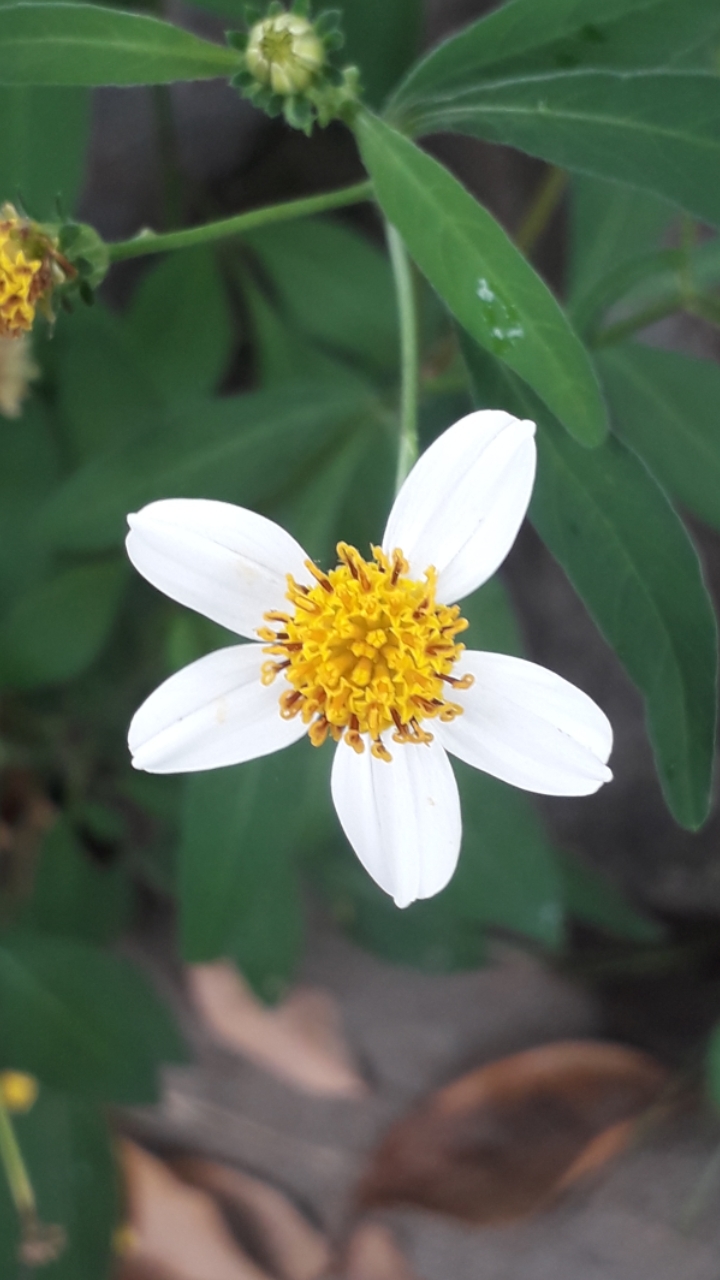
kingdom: Plantae
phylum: Tracheophyta
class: Magnoliopsida
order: Asterales
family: Asteraceae
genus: Bidens
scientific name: Bidens alba
